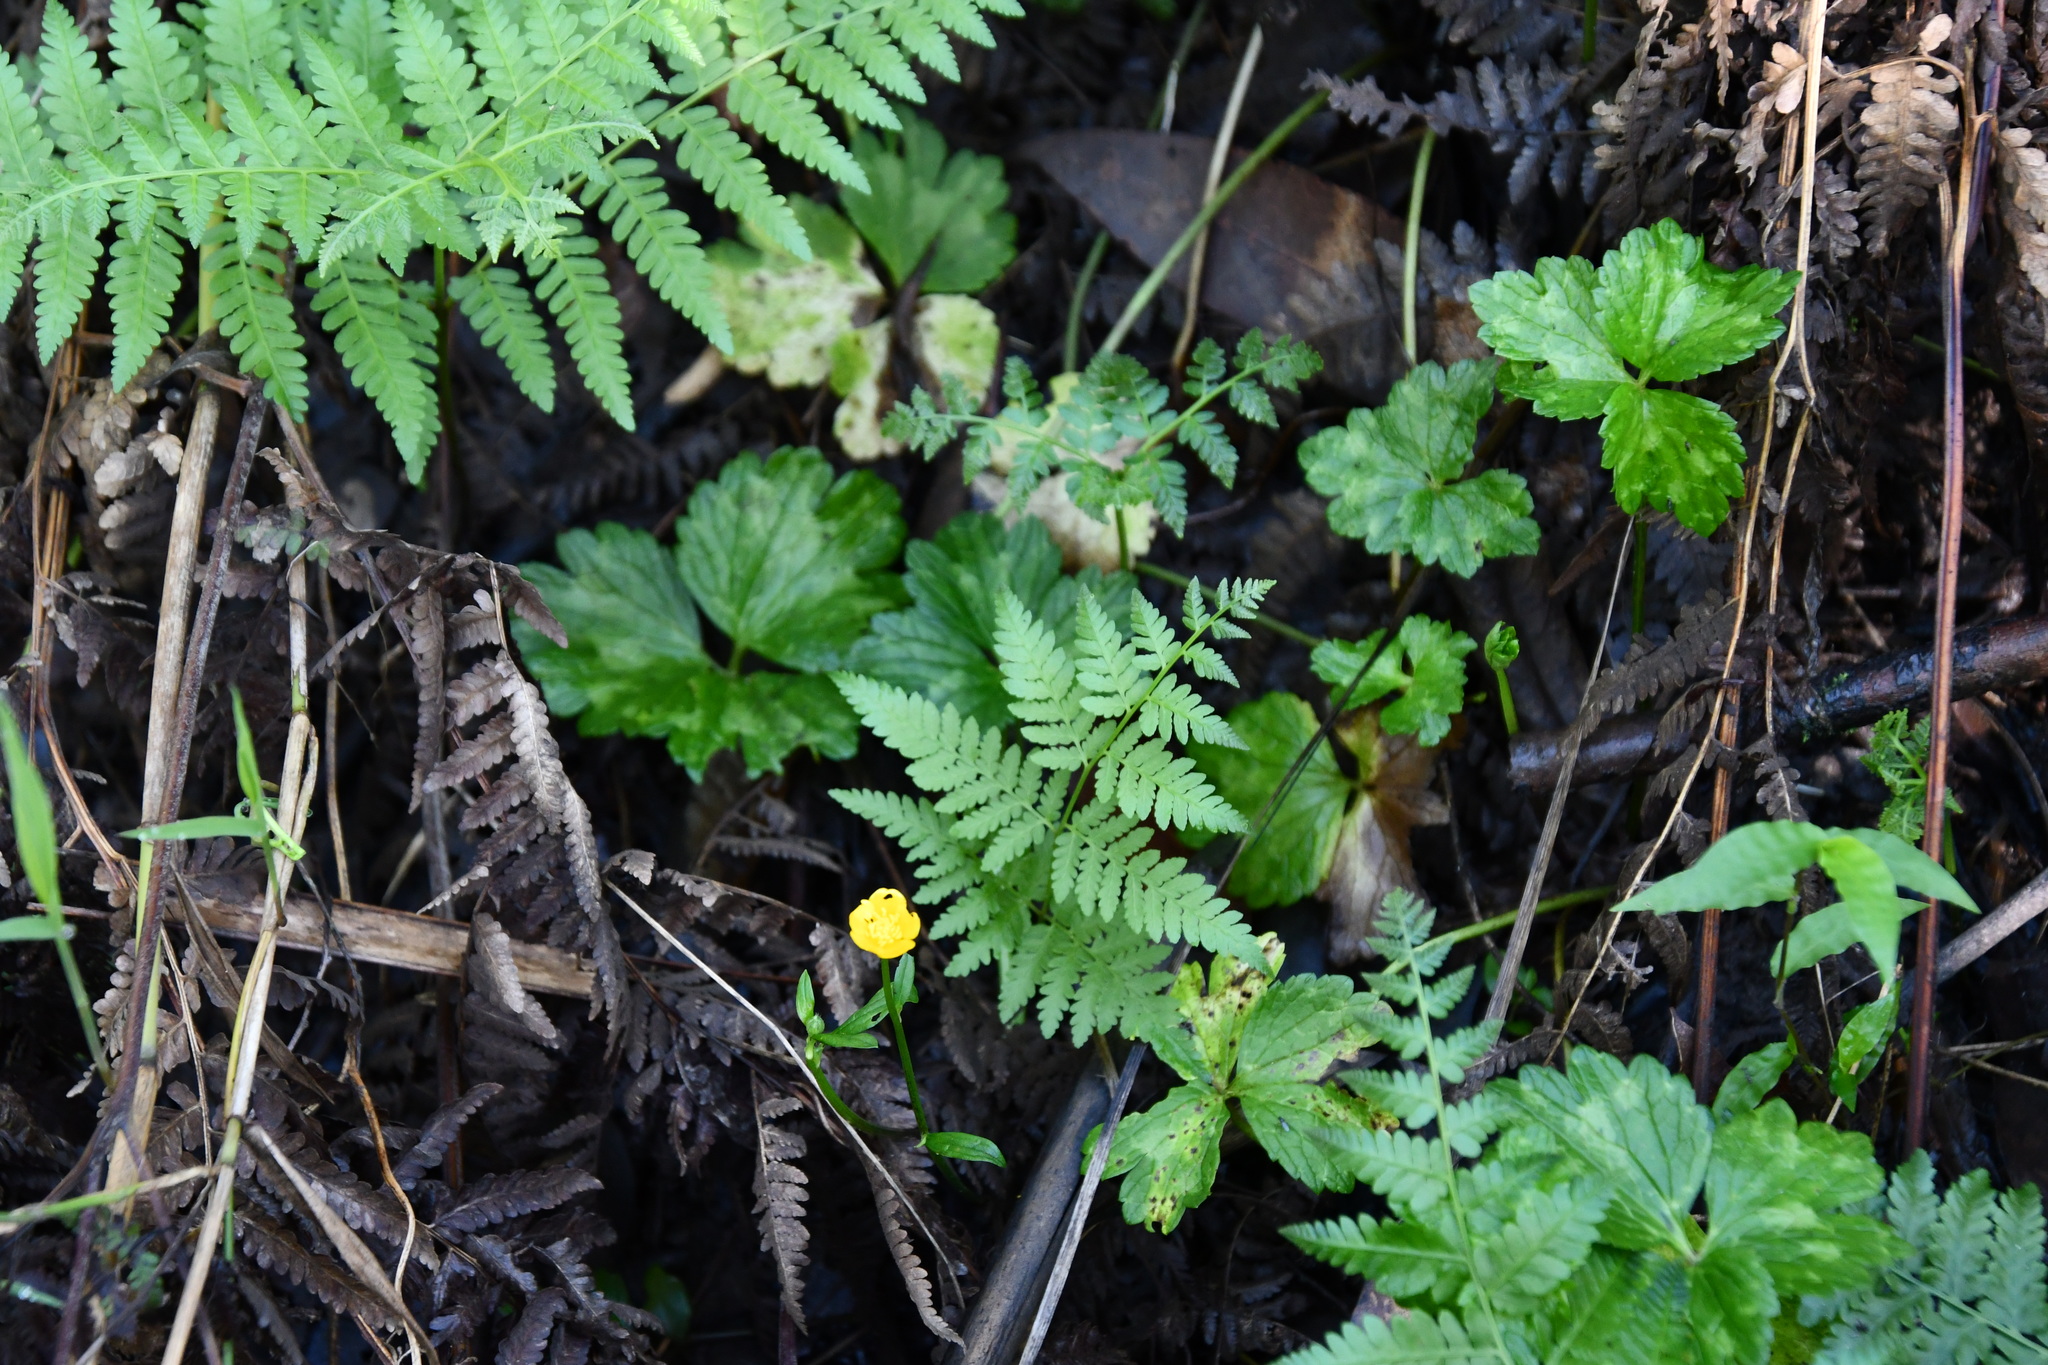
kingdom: Plantae
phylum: Tracheophyta
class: Magnoliopsida
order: Ranunculales
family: Ranunculaceae
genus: Ranunculus
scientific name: Ranunculus repens
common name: Creeping buttercup
